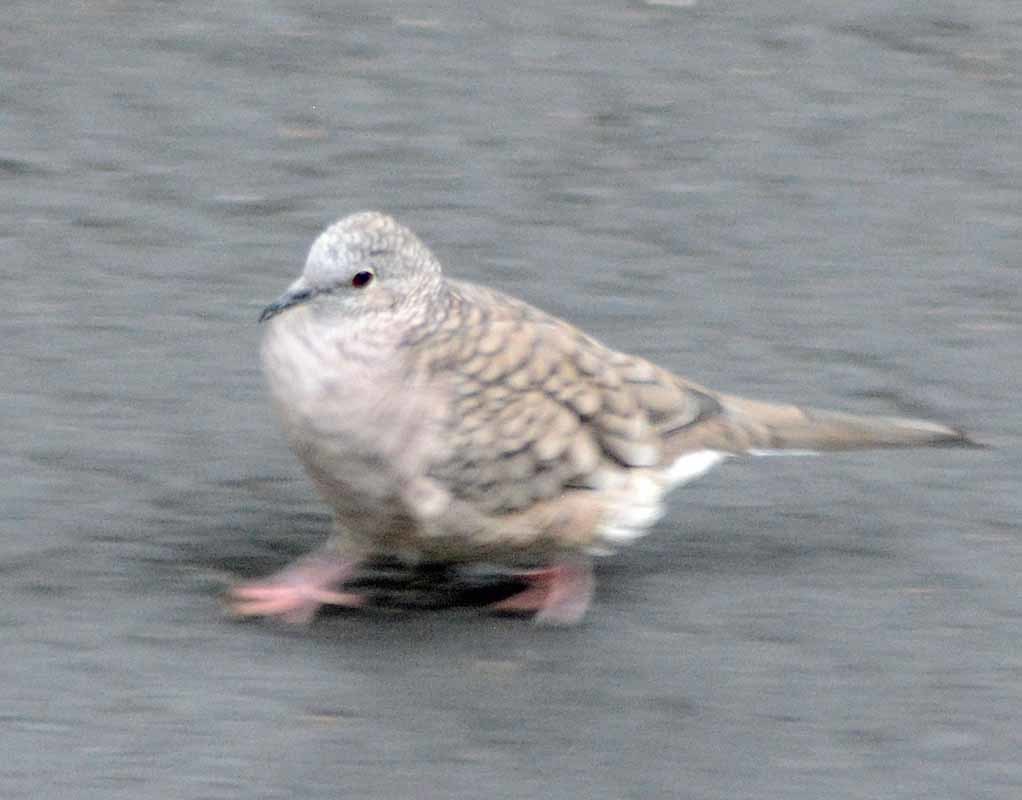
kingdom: Animalia
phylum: Chordata
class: Aves
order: Columbiformes
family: Columbidae
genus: Columbina
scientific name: Columbina inca
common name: Inca dove
